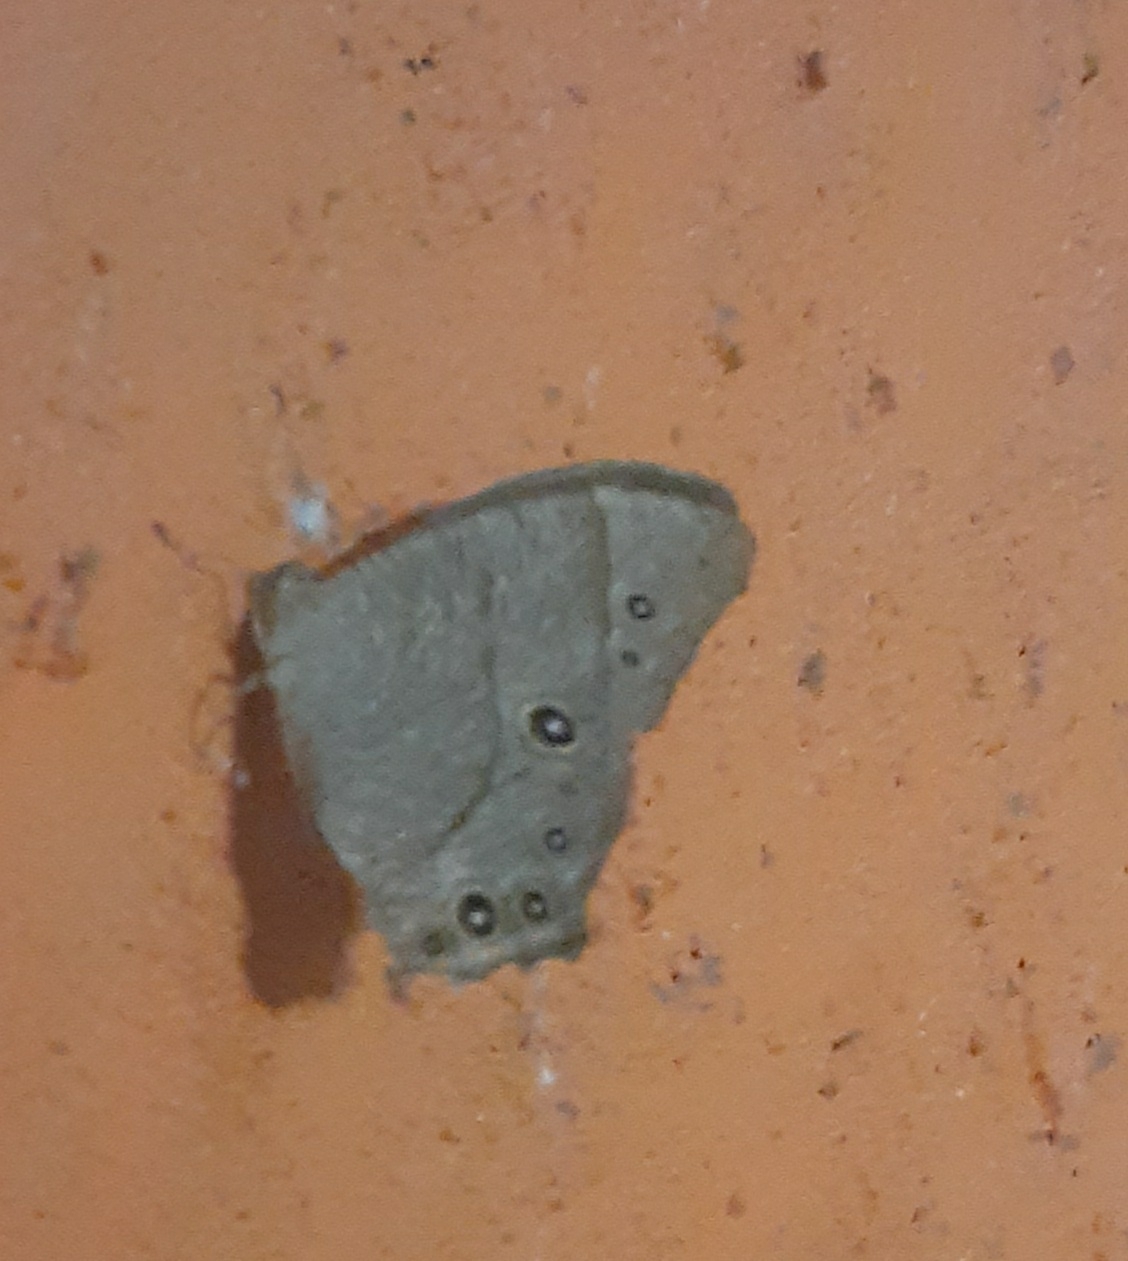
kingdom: Animalia
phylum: Arthropoda
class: Insecta
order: Lepidoptera
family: Nymphalidae
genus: Melanitis
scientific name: Melanitis leda
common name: Twilight brown
